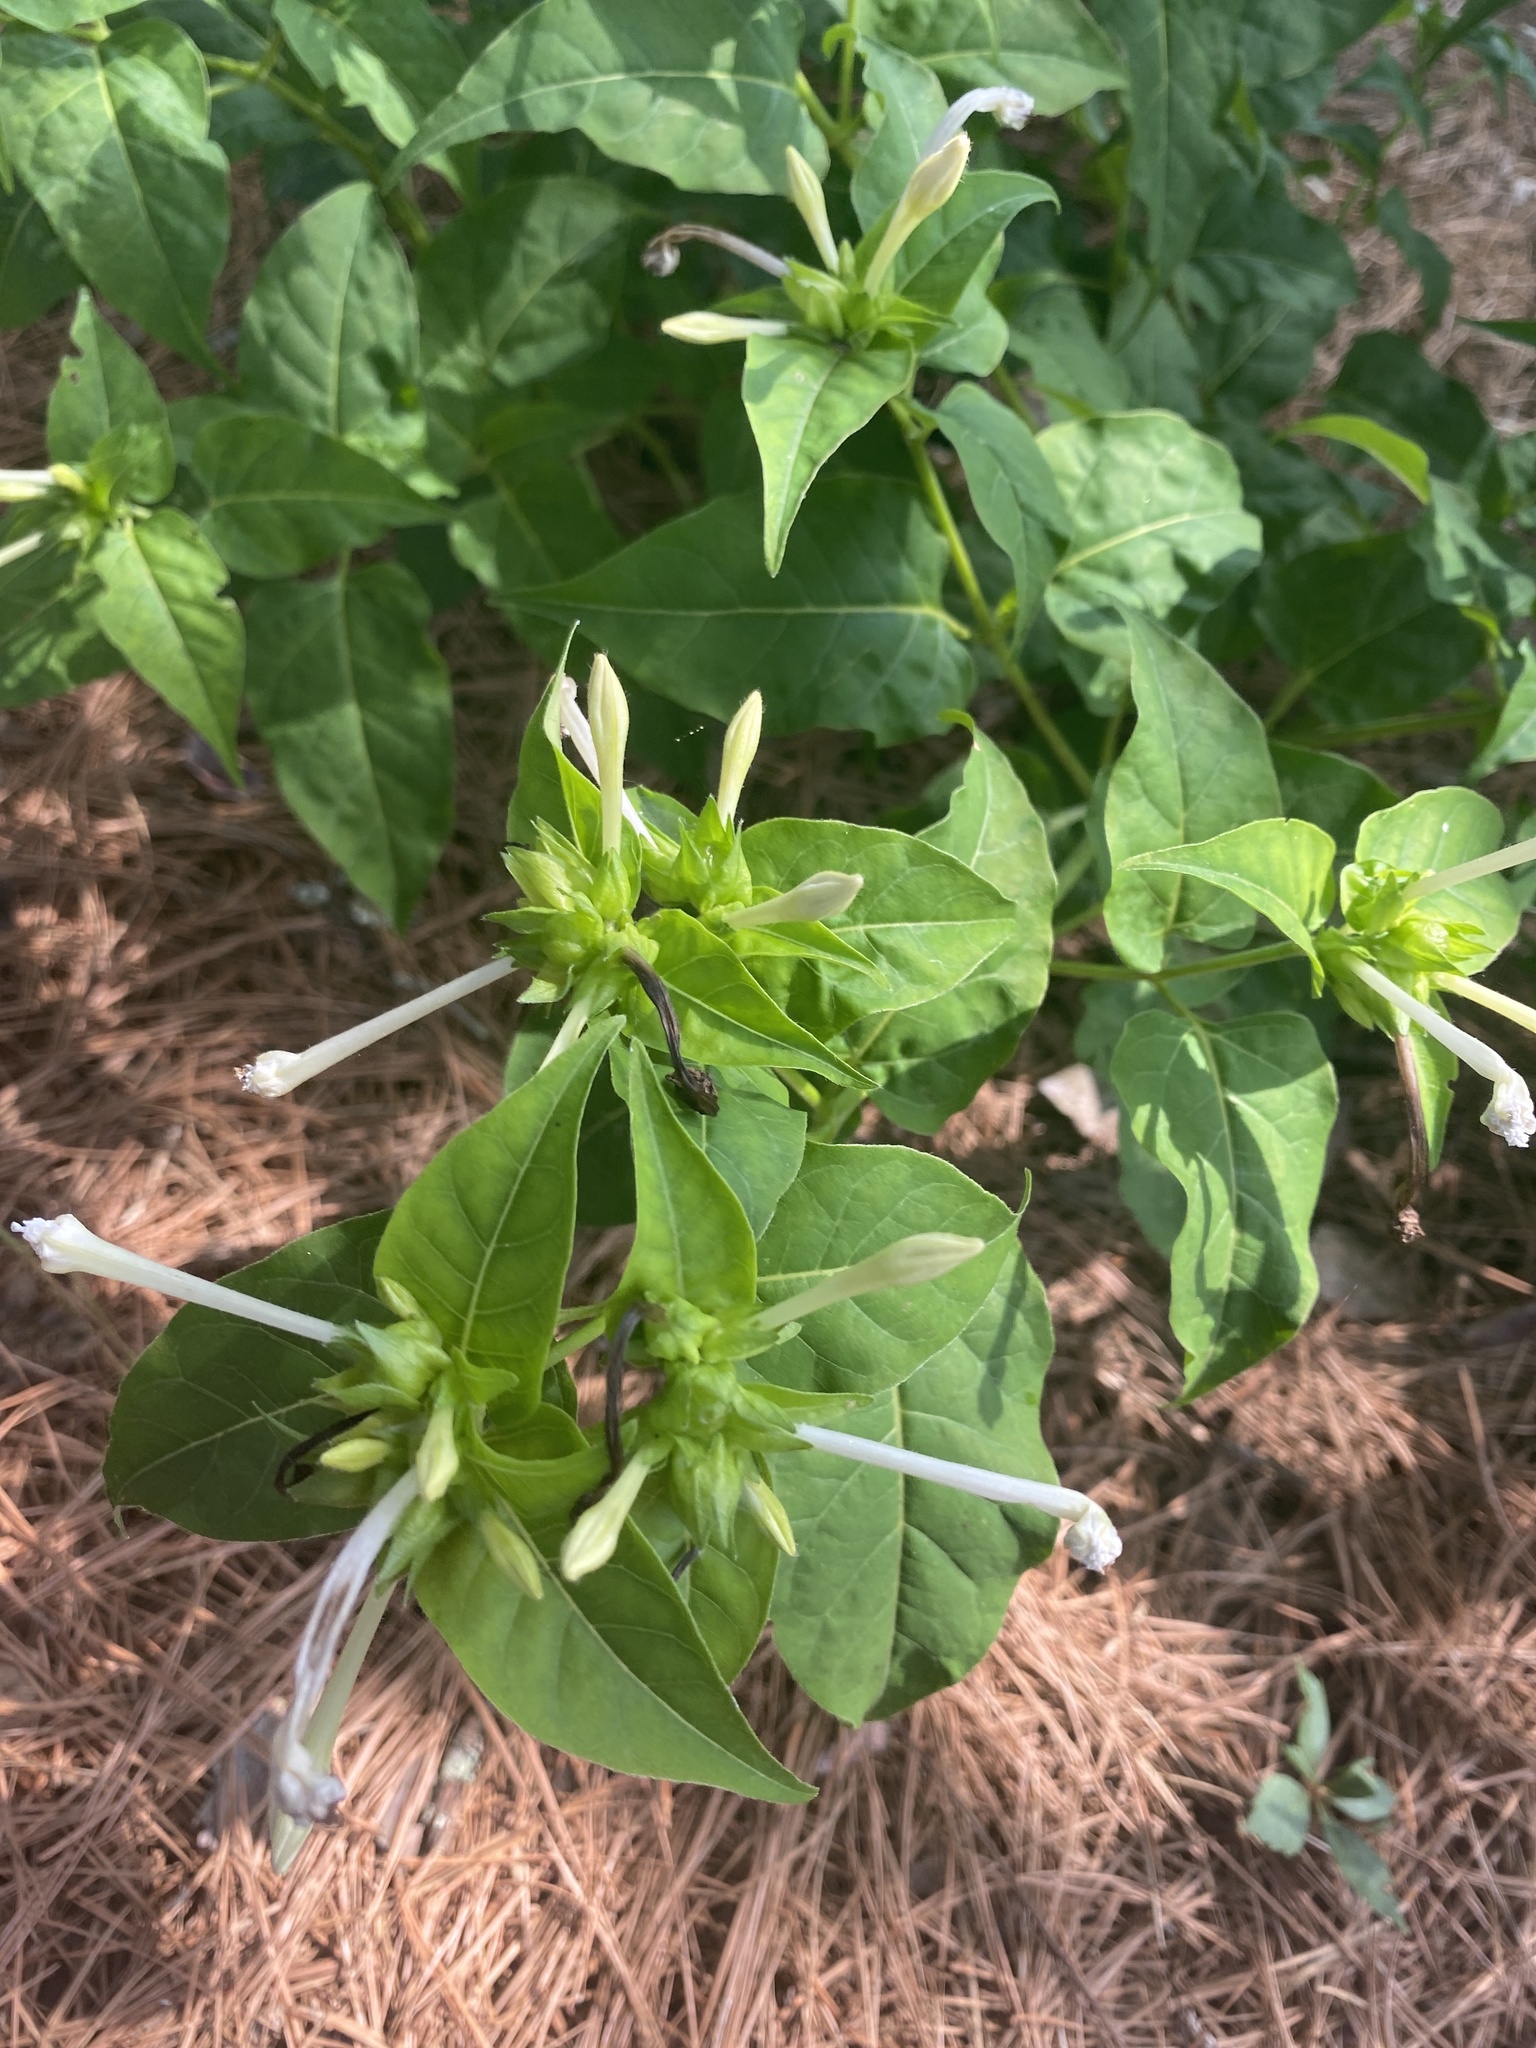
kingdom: Plantae
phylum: Tracheophyta
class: Magnoliopsida
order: Caryophyllales
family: Nyctaginaceae
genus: Mirabilis
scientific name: Mirabilis jalapa
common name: Marvel-of-peru
